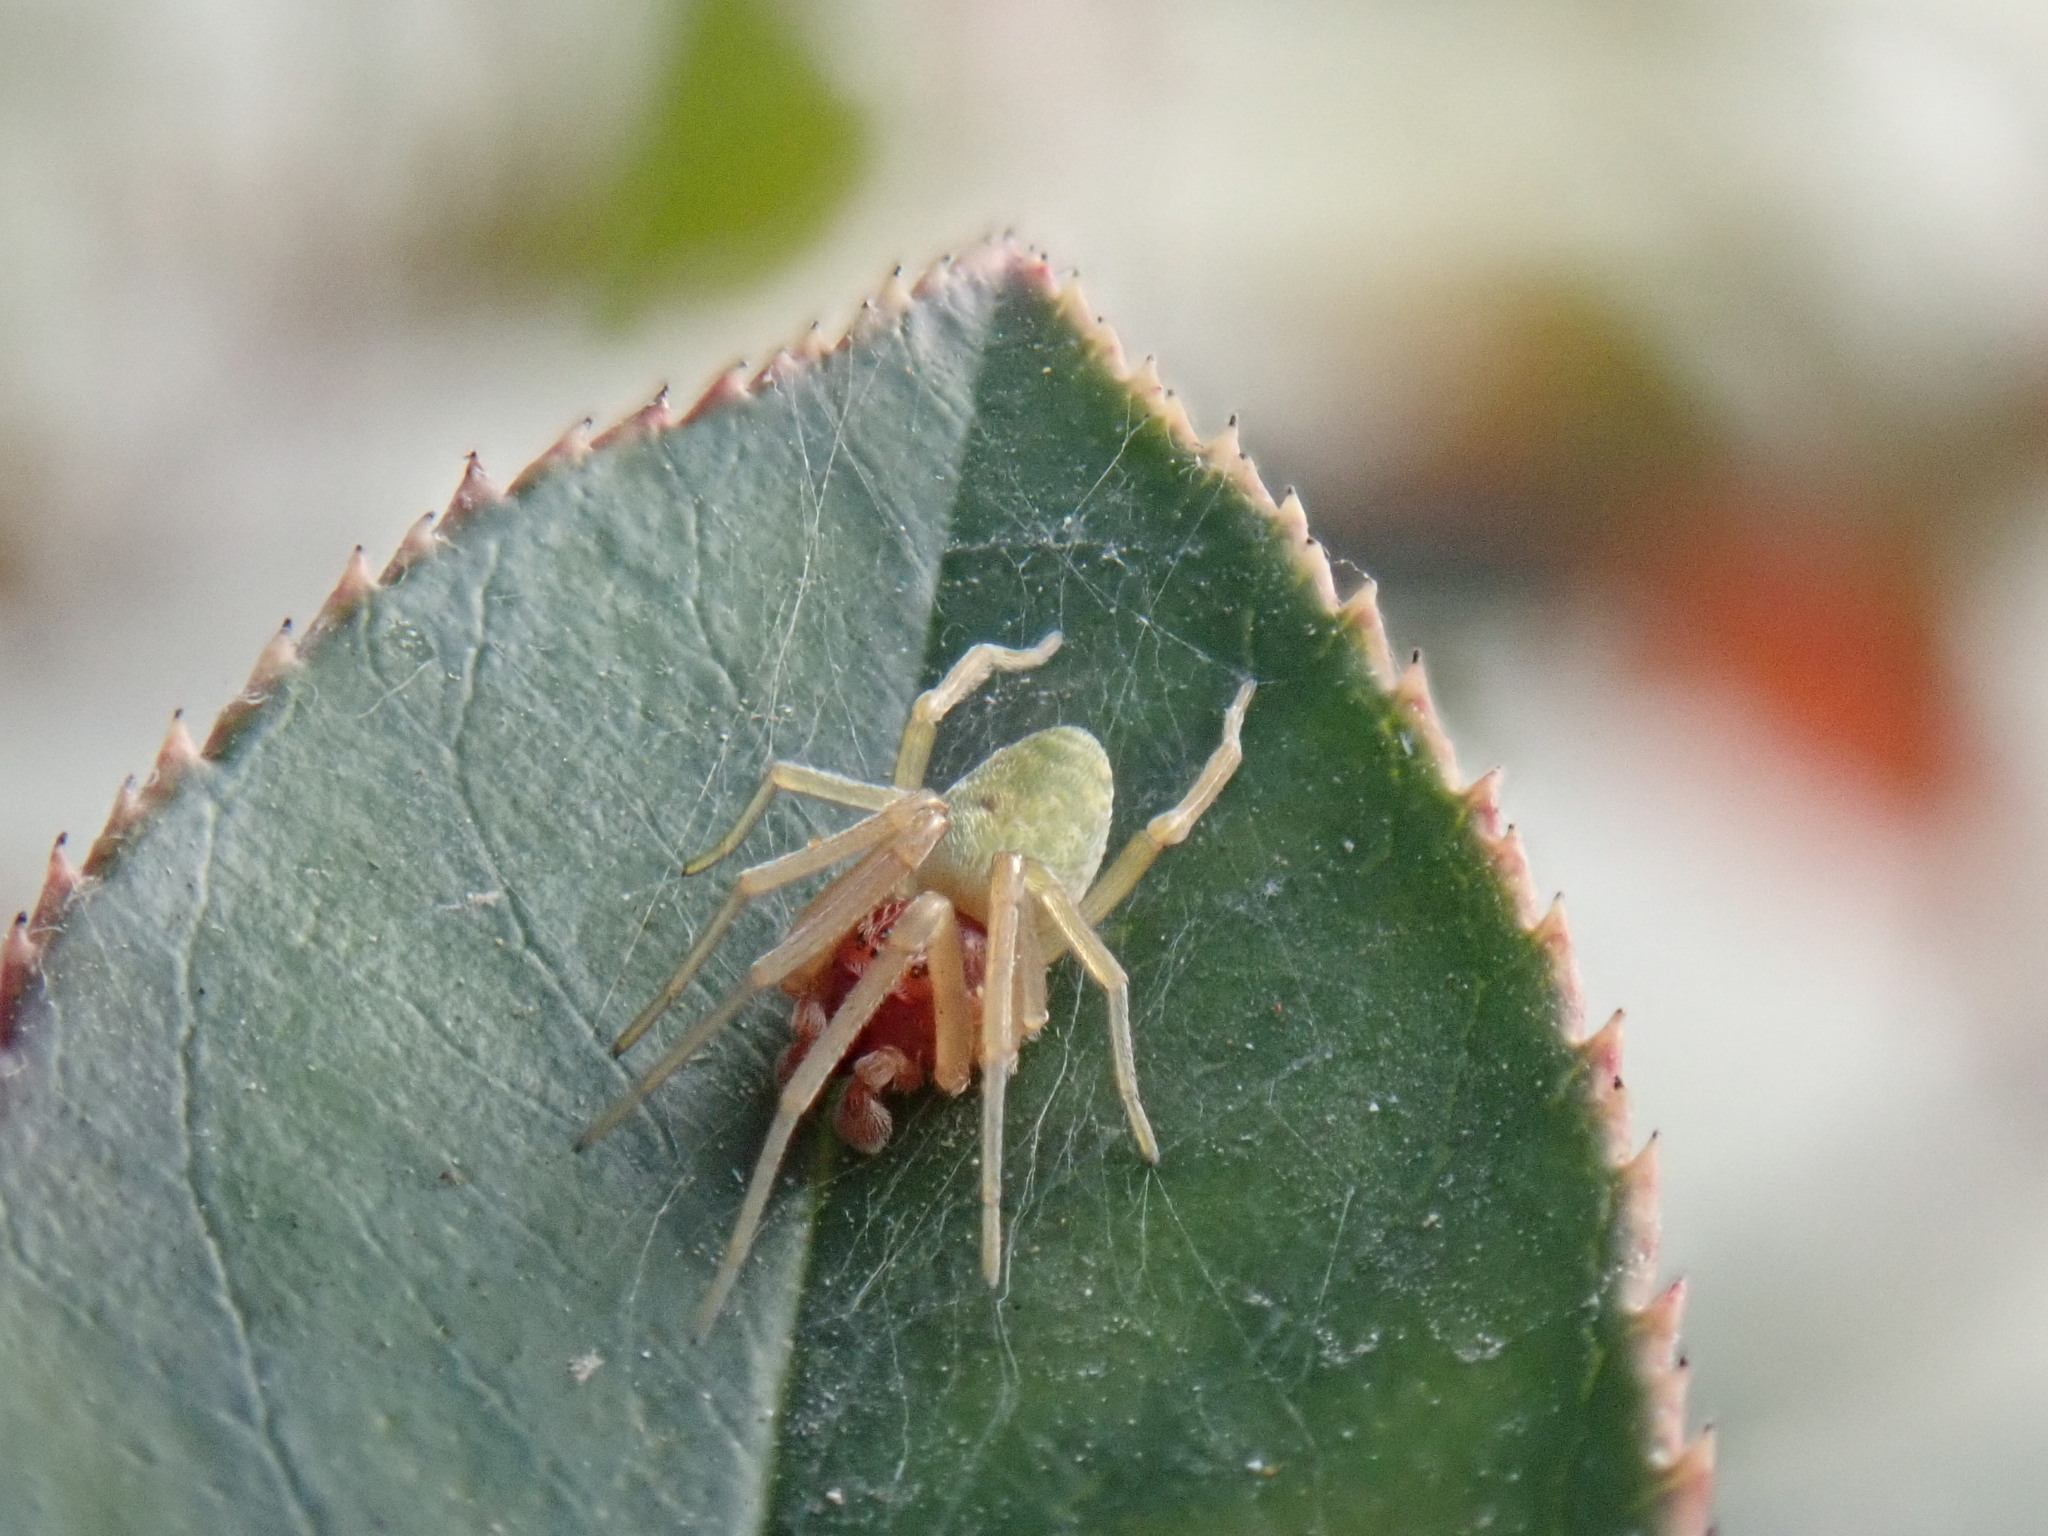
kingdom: Animalia
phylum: Arthropoda
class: Arachnida
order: Araneae
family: Dictynidae
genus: Nigma
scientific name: Nigma walckenaeri
